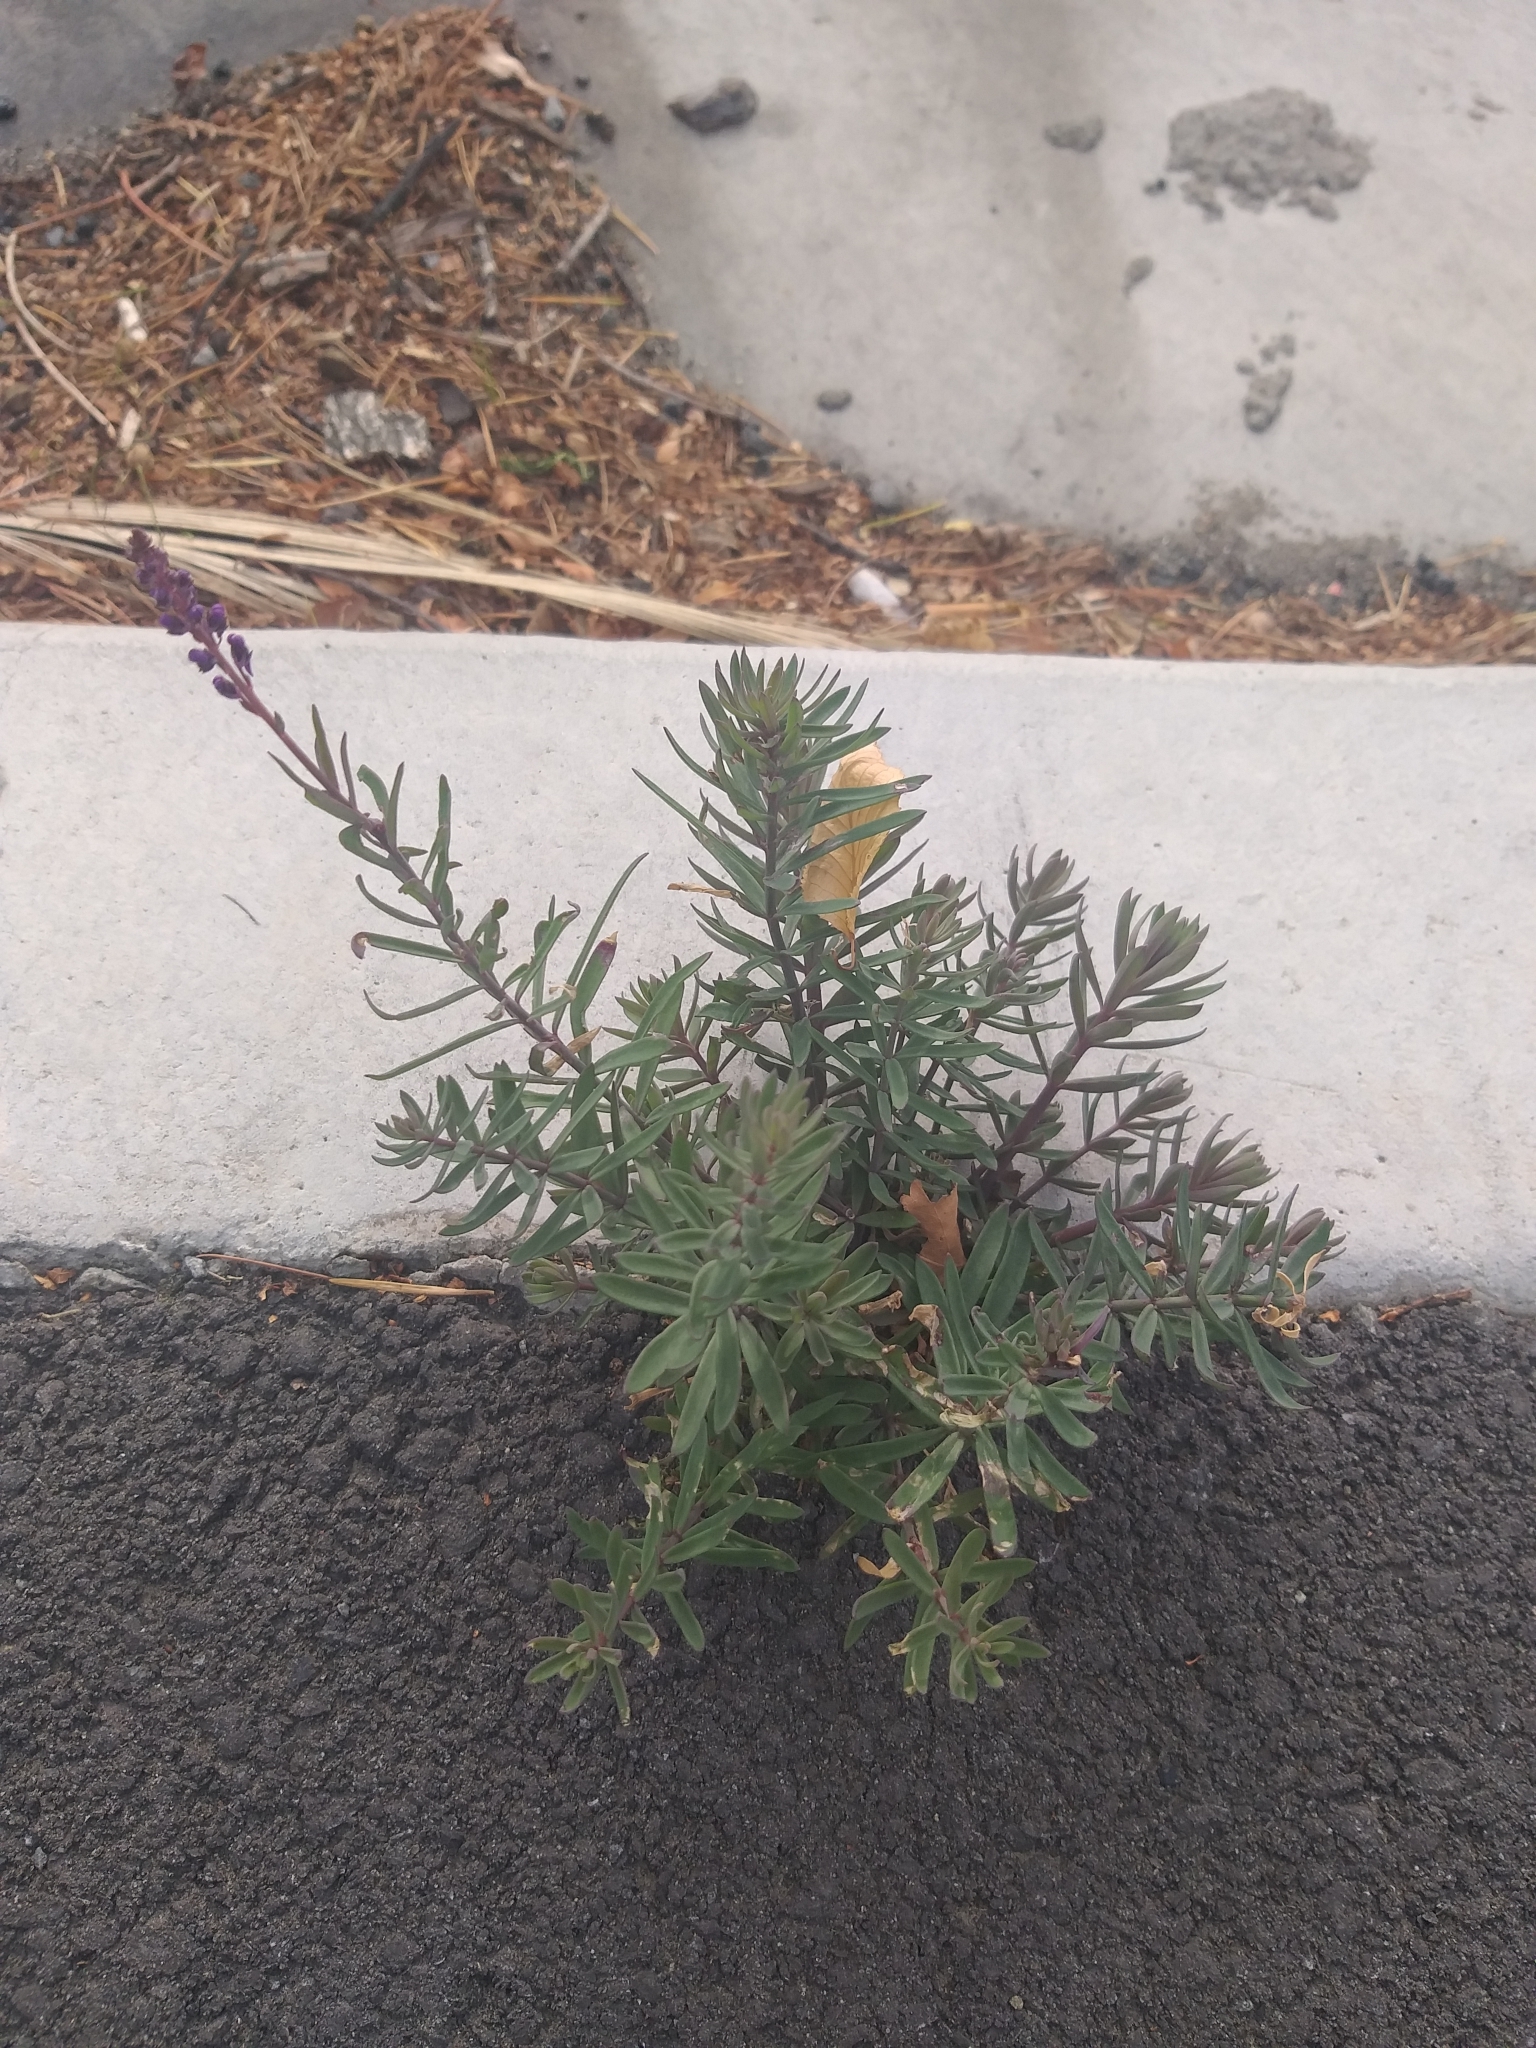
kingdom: Plantae
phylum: Tracheophyta
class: Magnoliopsida
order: Lamiales
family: Plantaginaceae
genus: Linaria
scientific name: Linaria purpurea
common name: Purple toadflax
